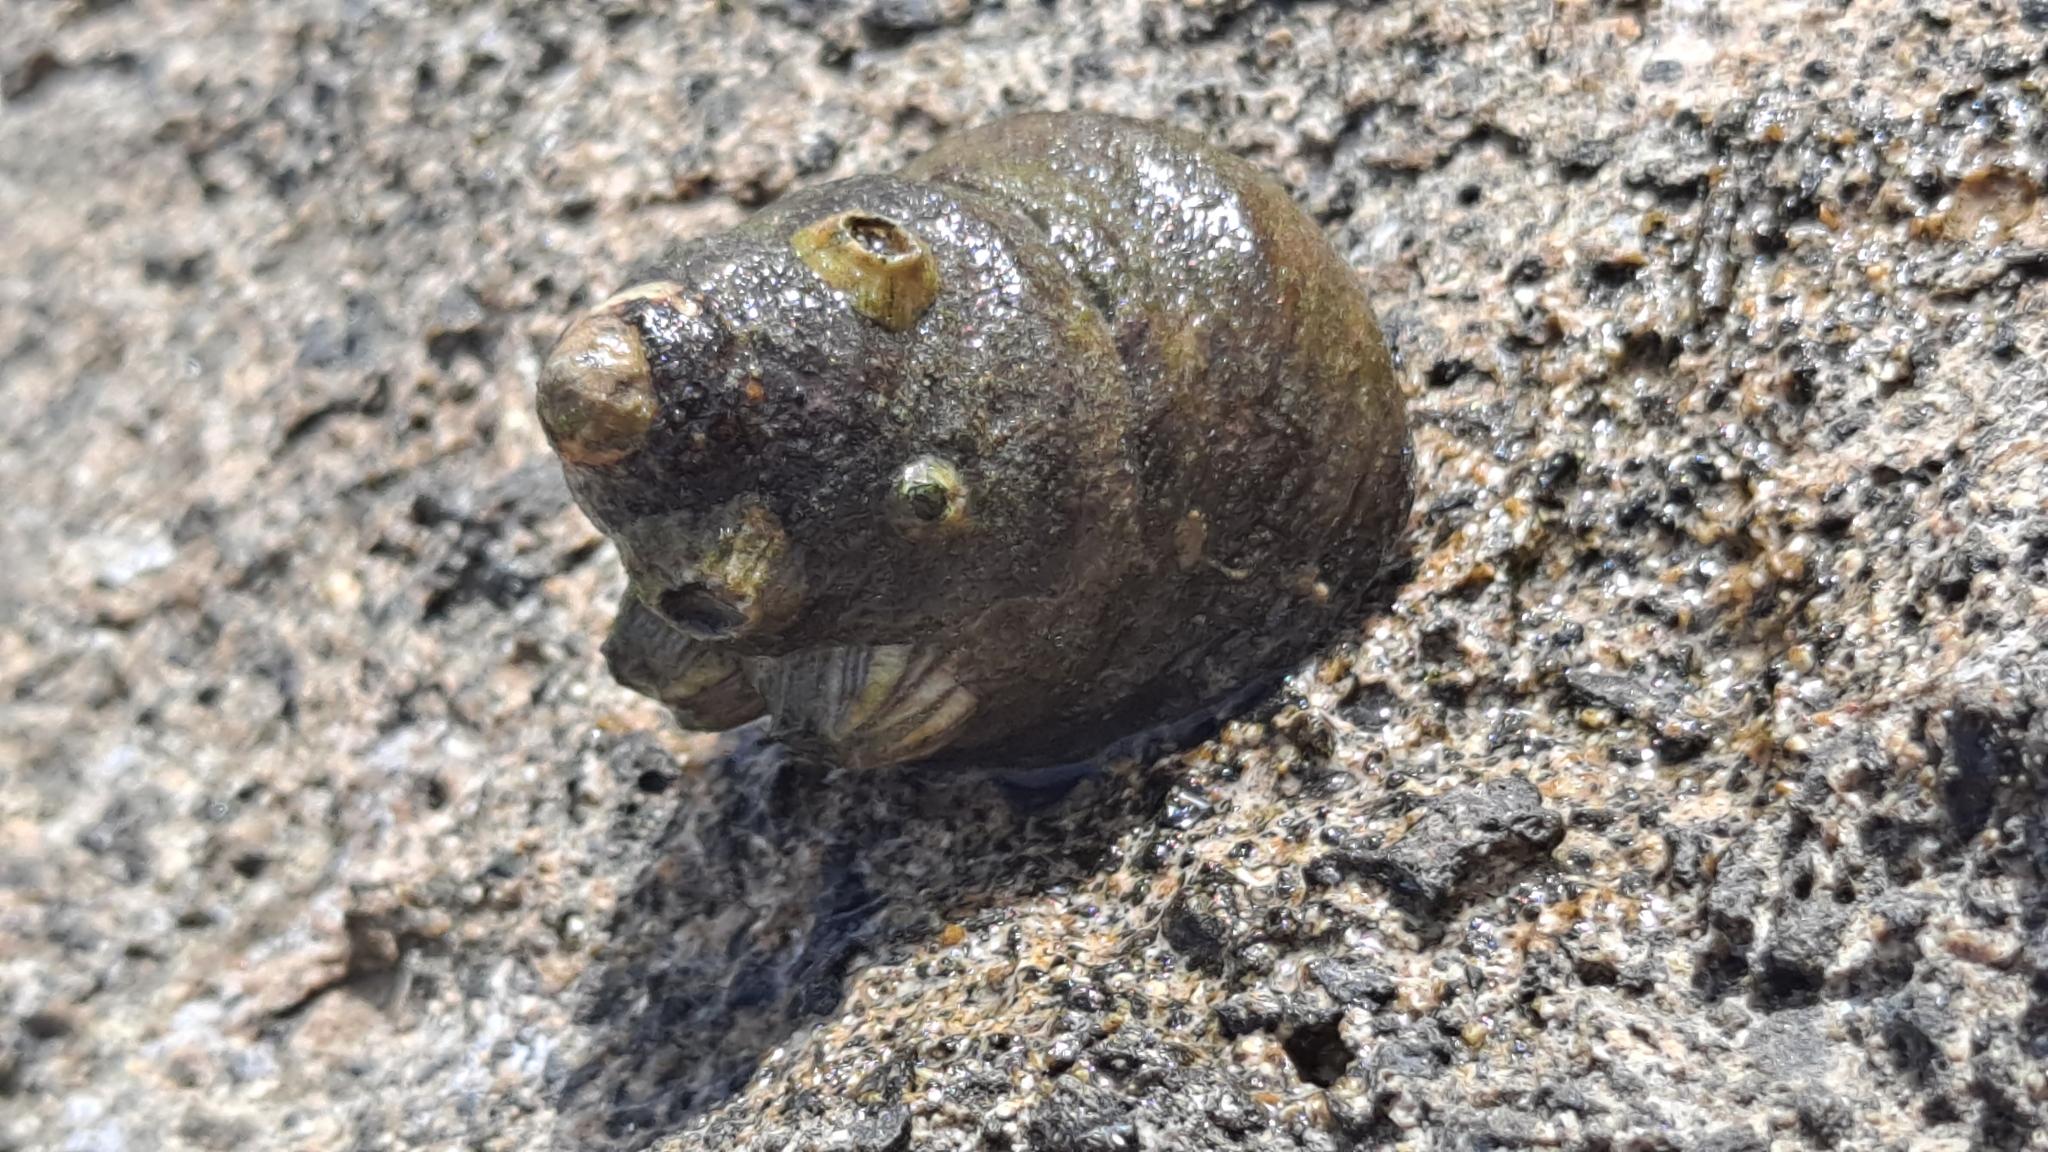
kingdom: Animalia
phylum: Mollusca
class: Gastropoda
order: Trochida
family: Trochidae
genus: Phorcus
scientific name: Phorcus atratus
